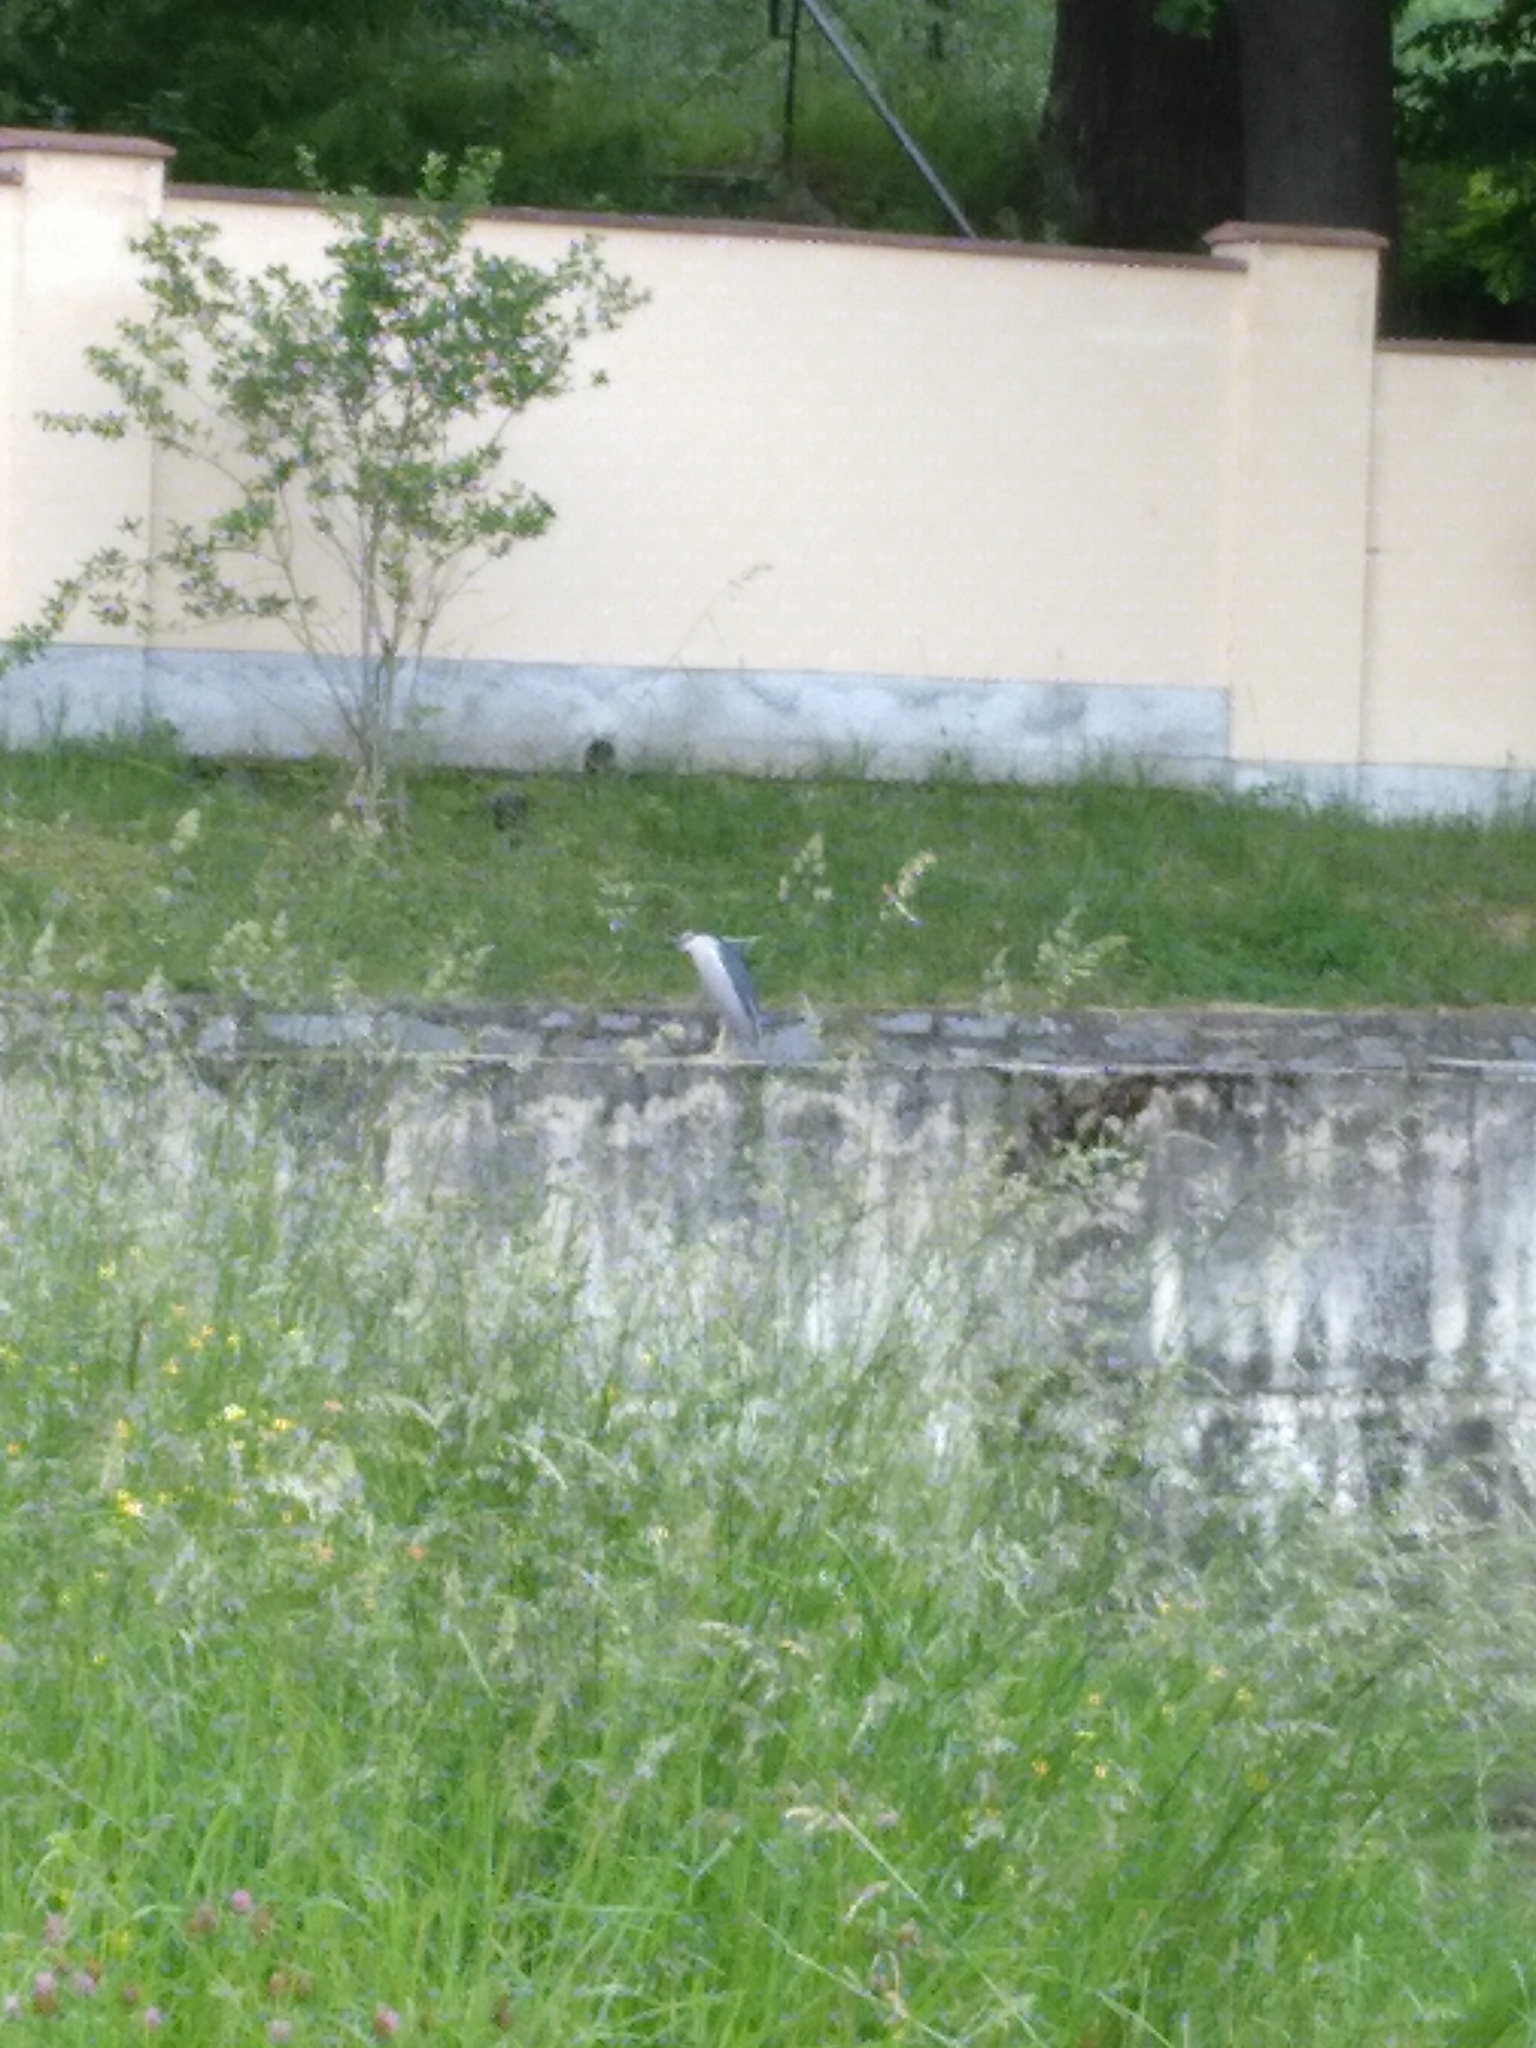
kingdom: Animalia
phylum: Chordata
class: Aves
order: Pelecaniformes
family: Ardeidae
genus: Nycticorax
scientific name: Nycticorax nycticorax
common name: Black-crowned night heron
